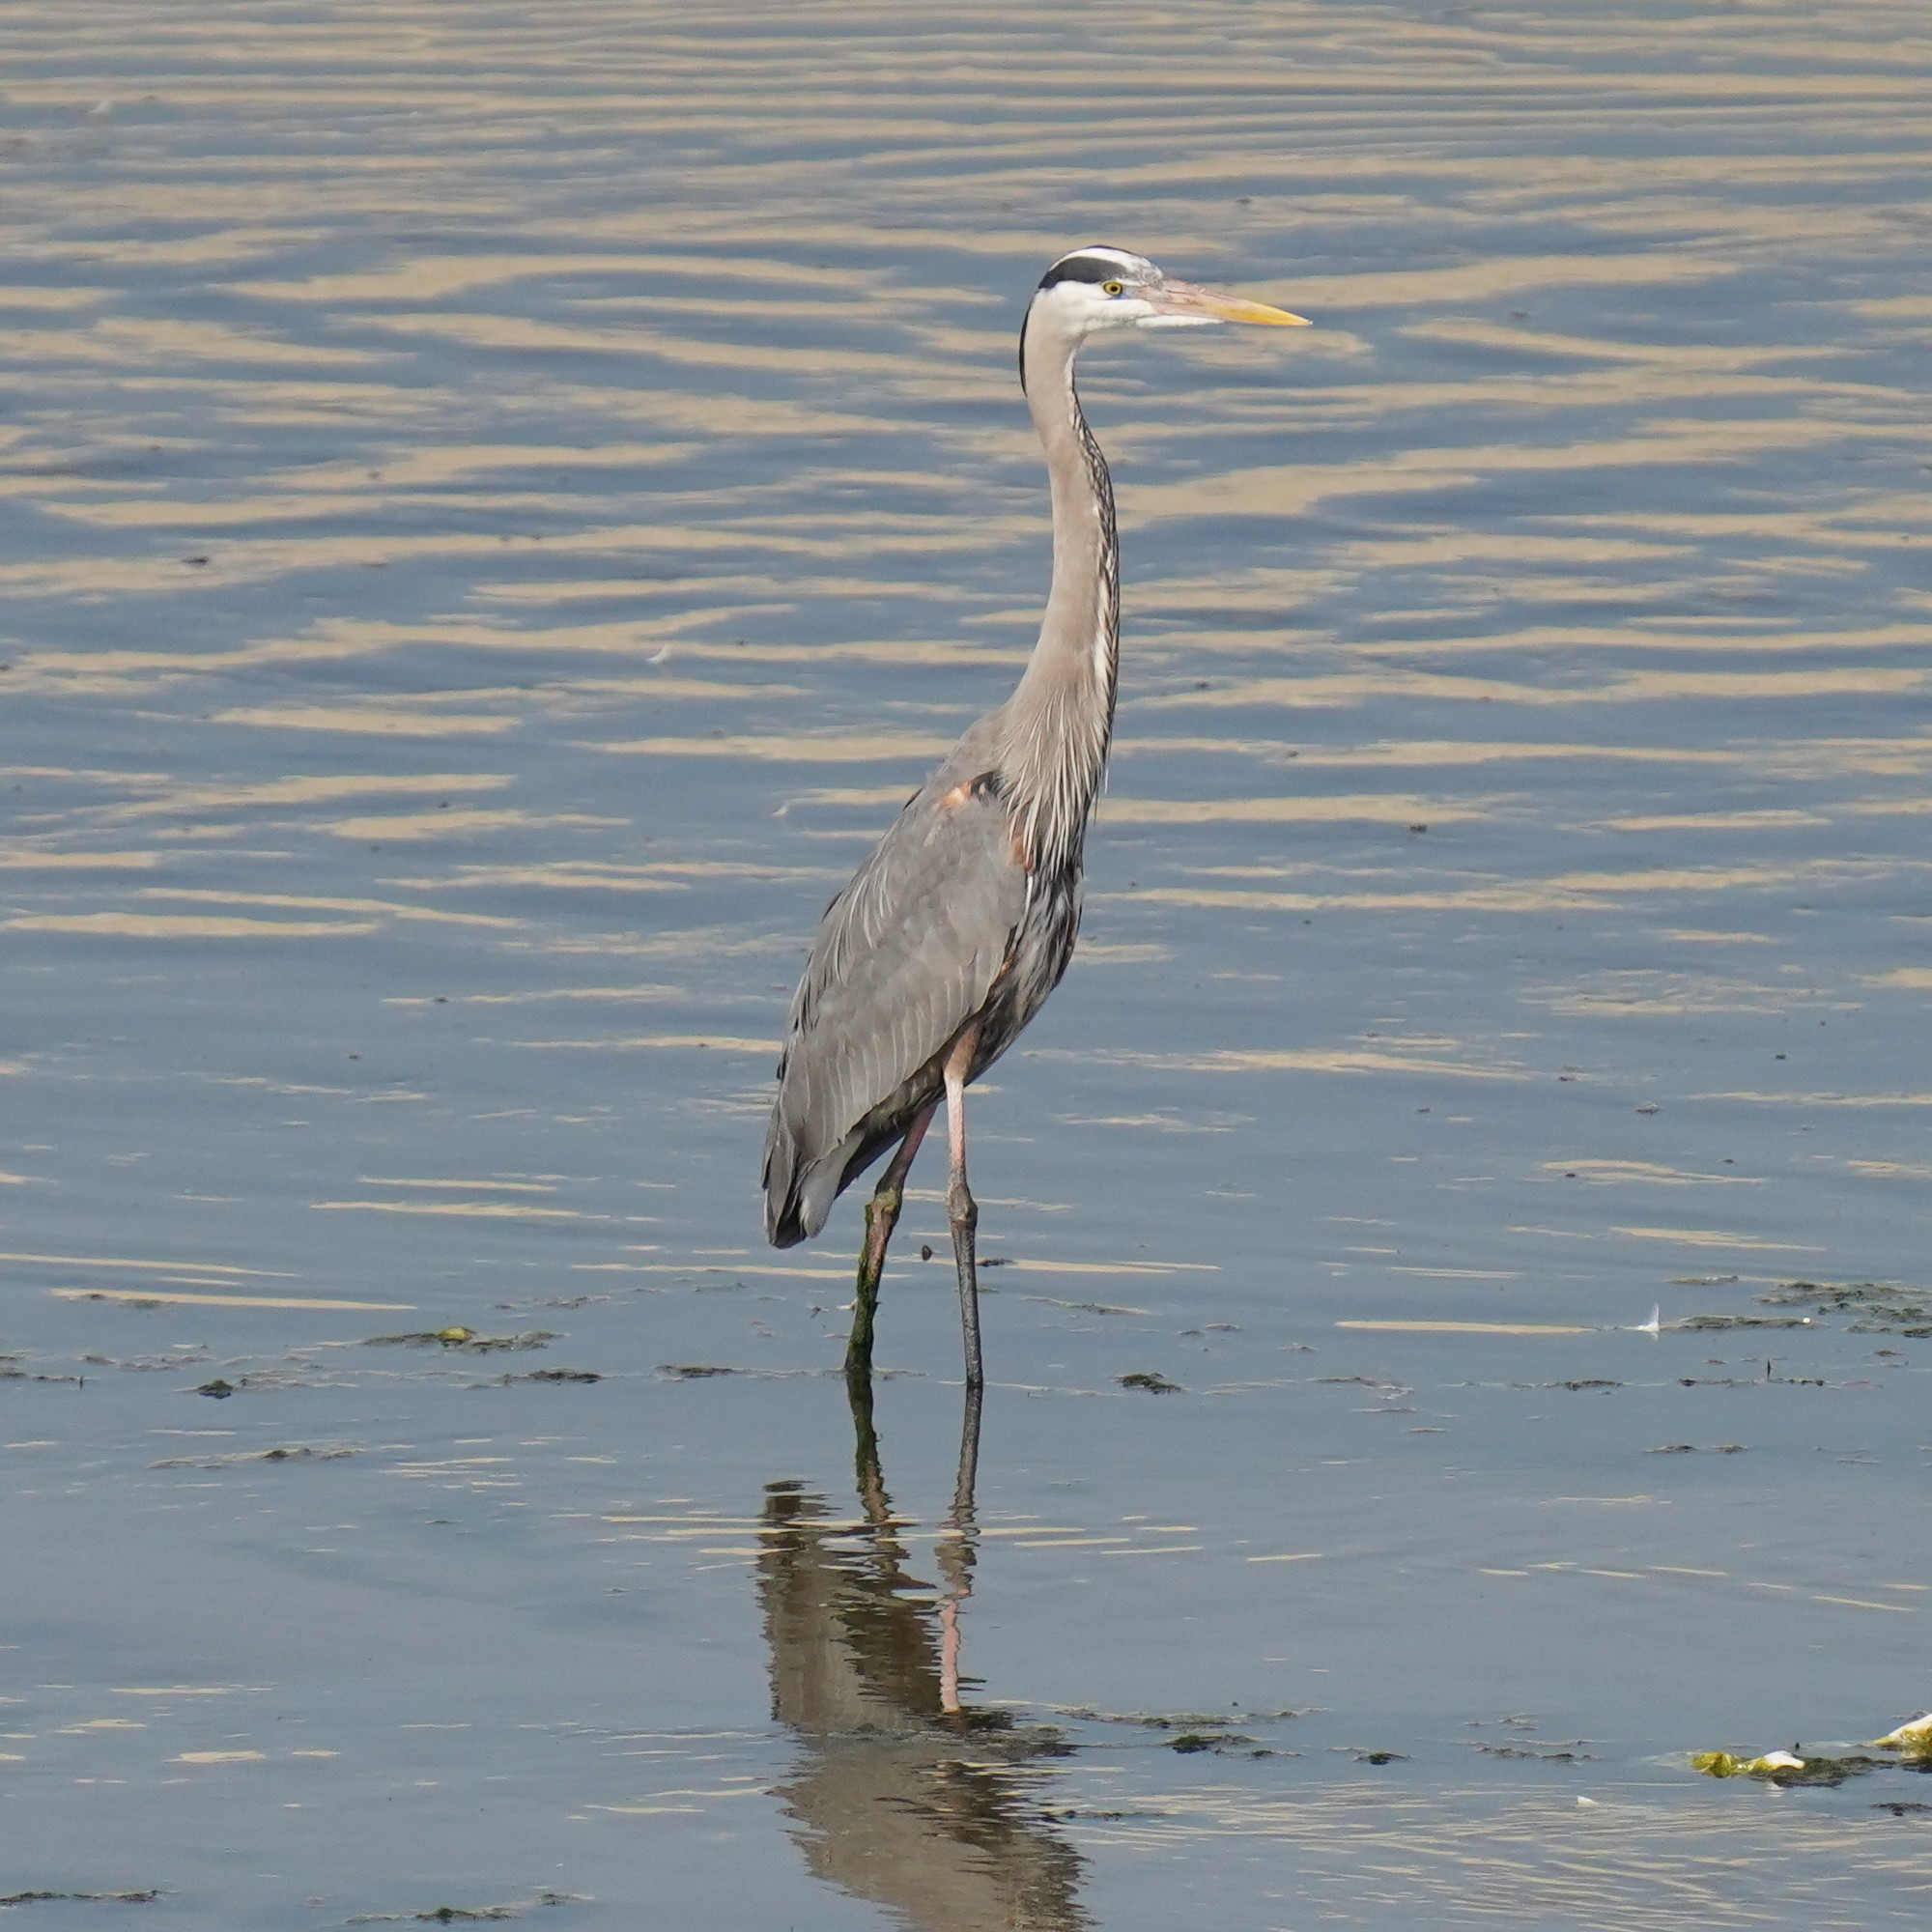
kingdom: Animalia
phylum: Chordata
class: Aves
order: Pelecaniformes
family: Ardeidae
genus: Ardea
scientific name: Ardea herodias
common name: Great blue heron
